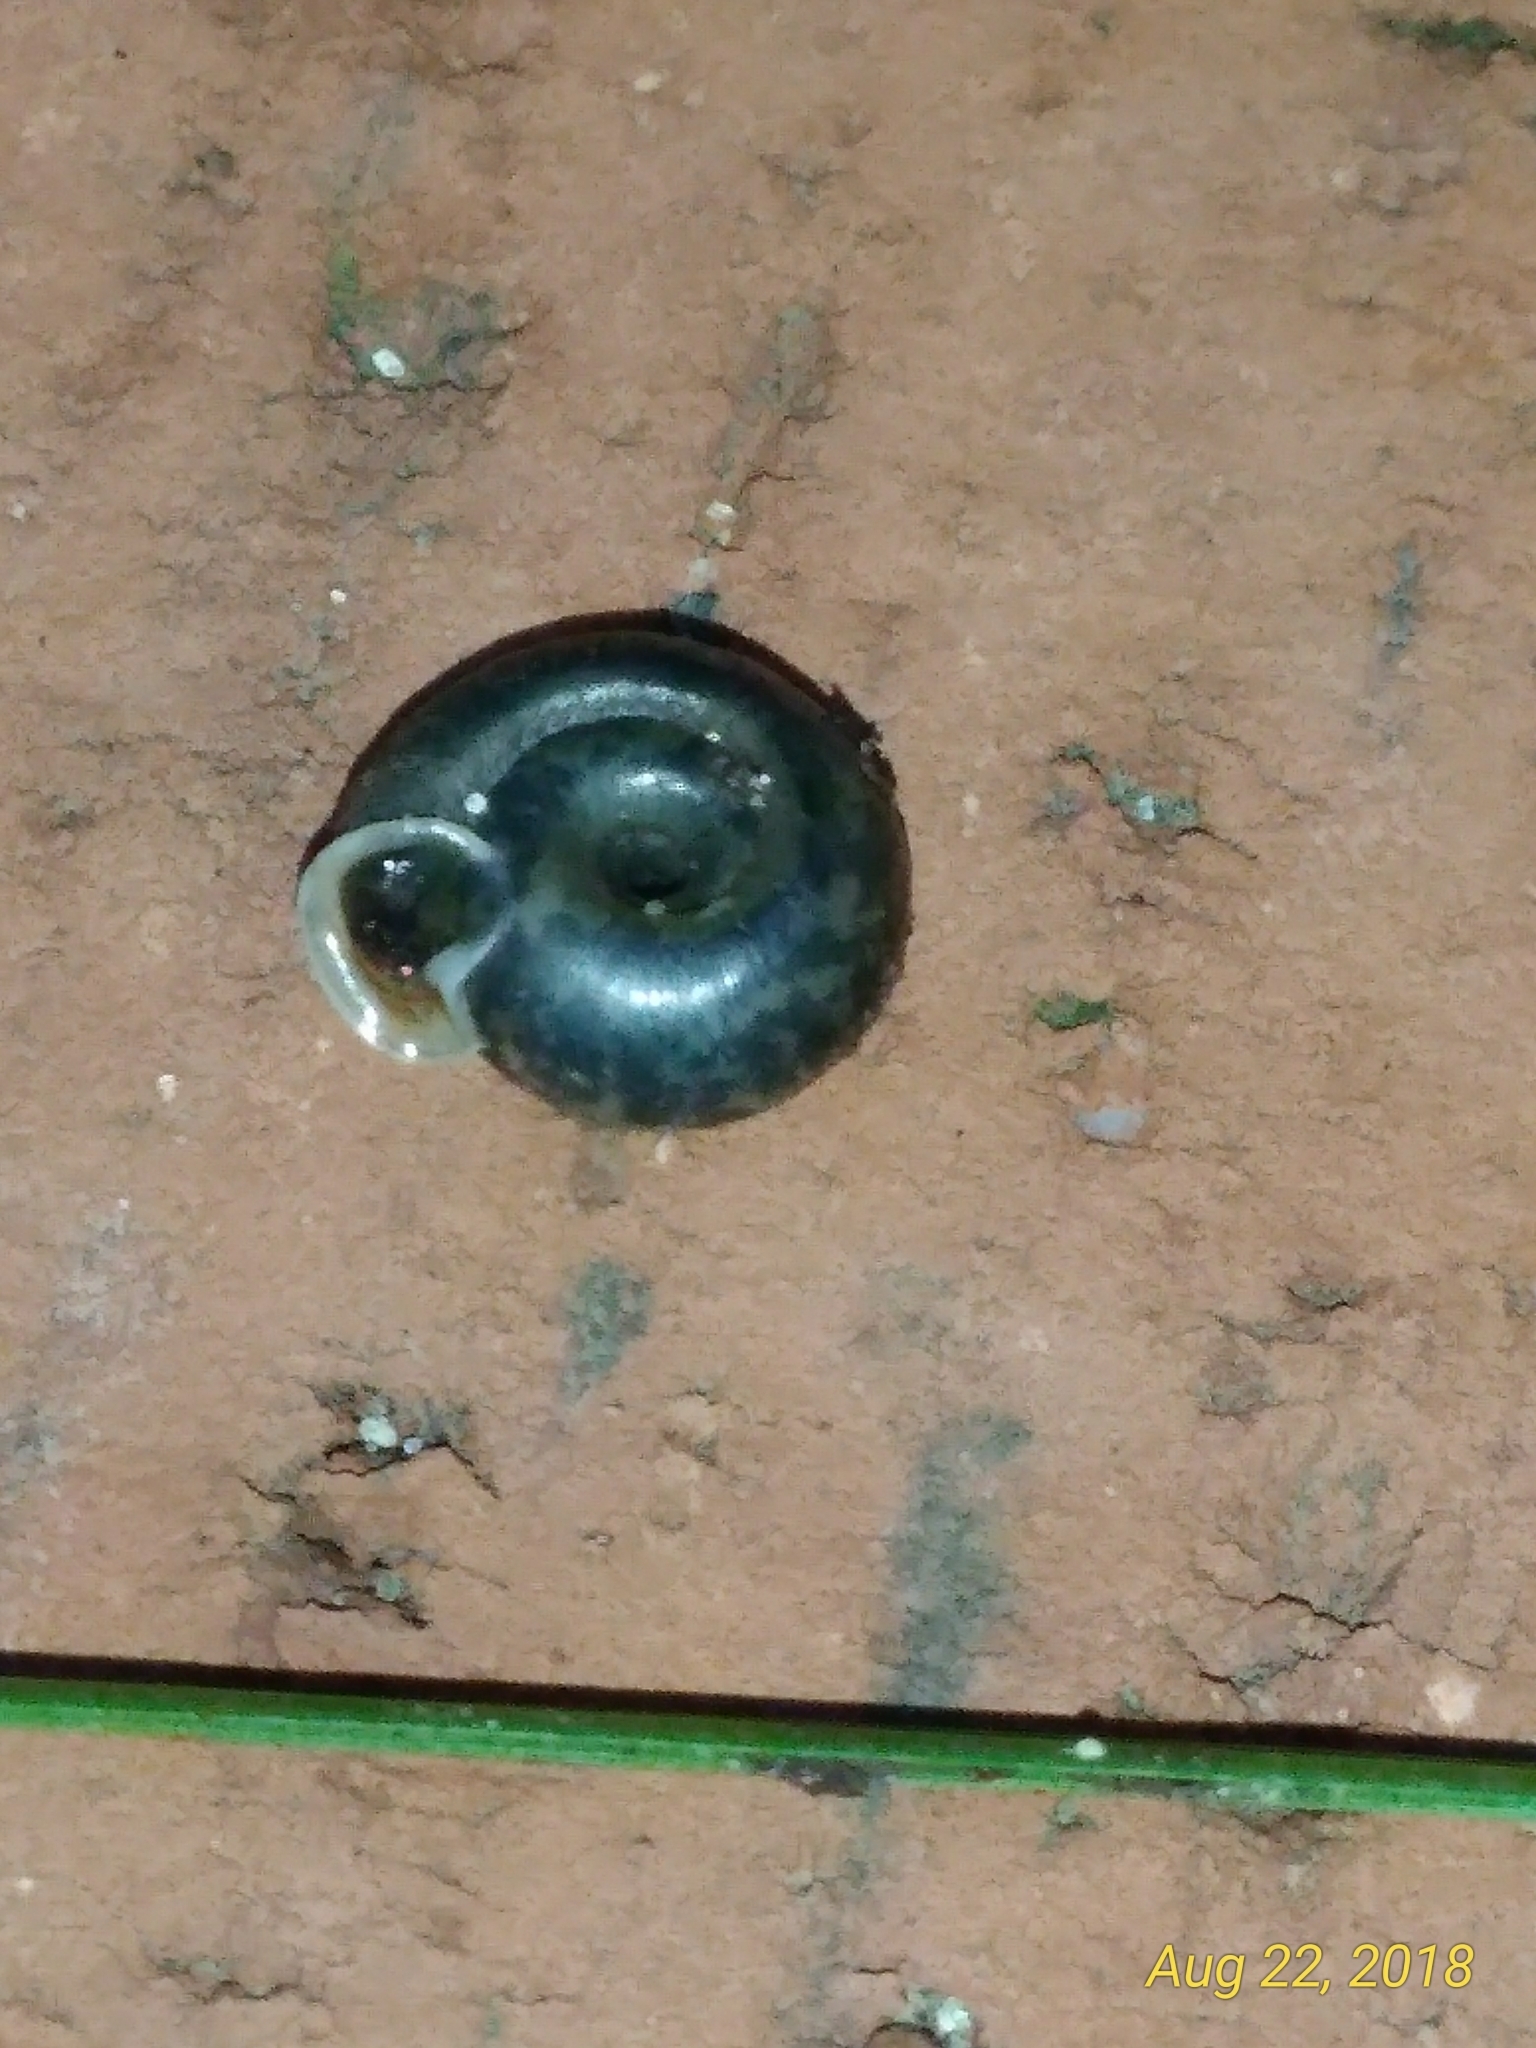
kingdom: Animalia
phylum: Mollusca
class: Gastropoda
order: Stylommatophora
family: Polygyridae
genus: Polygyra
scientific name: Polygyra cereolus
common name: Southern flatcone snail
